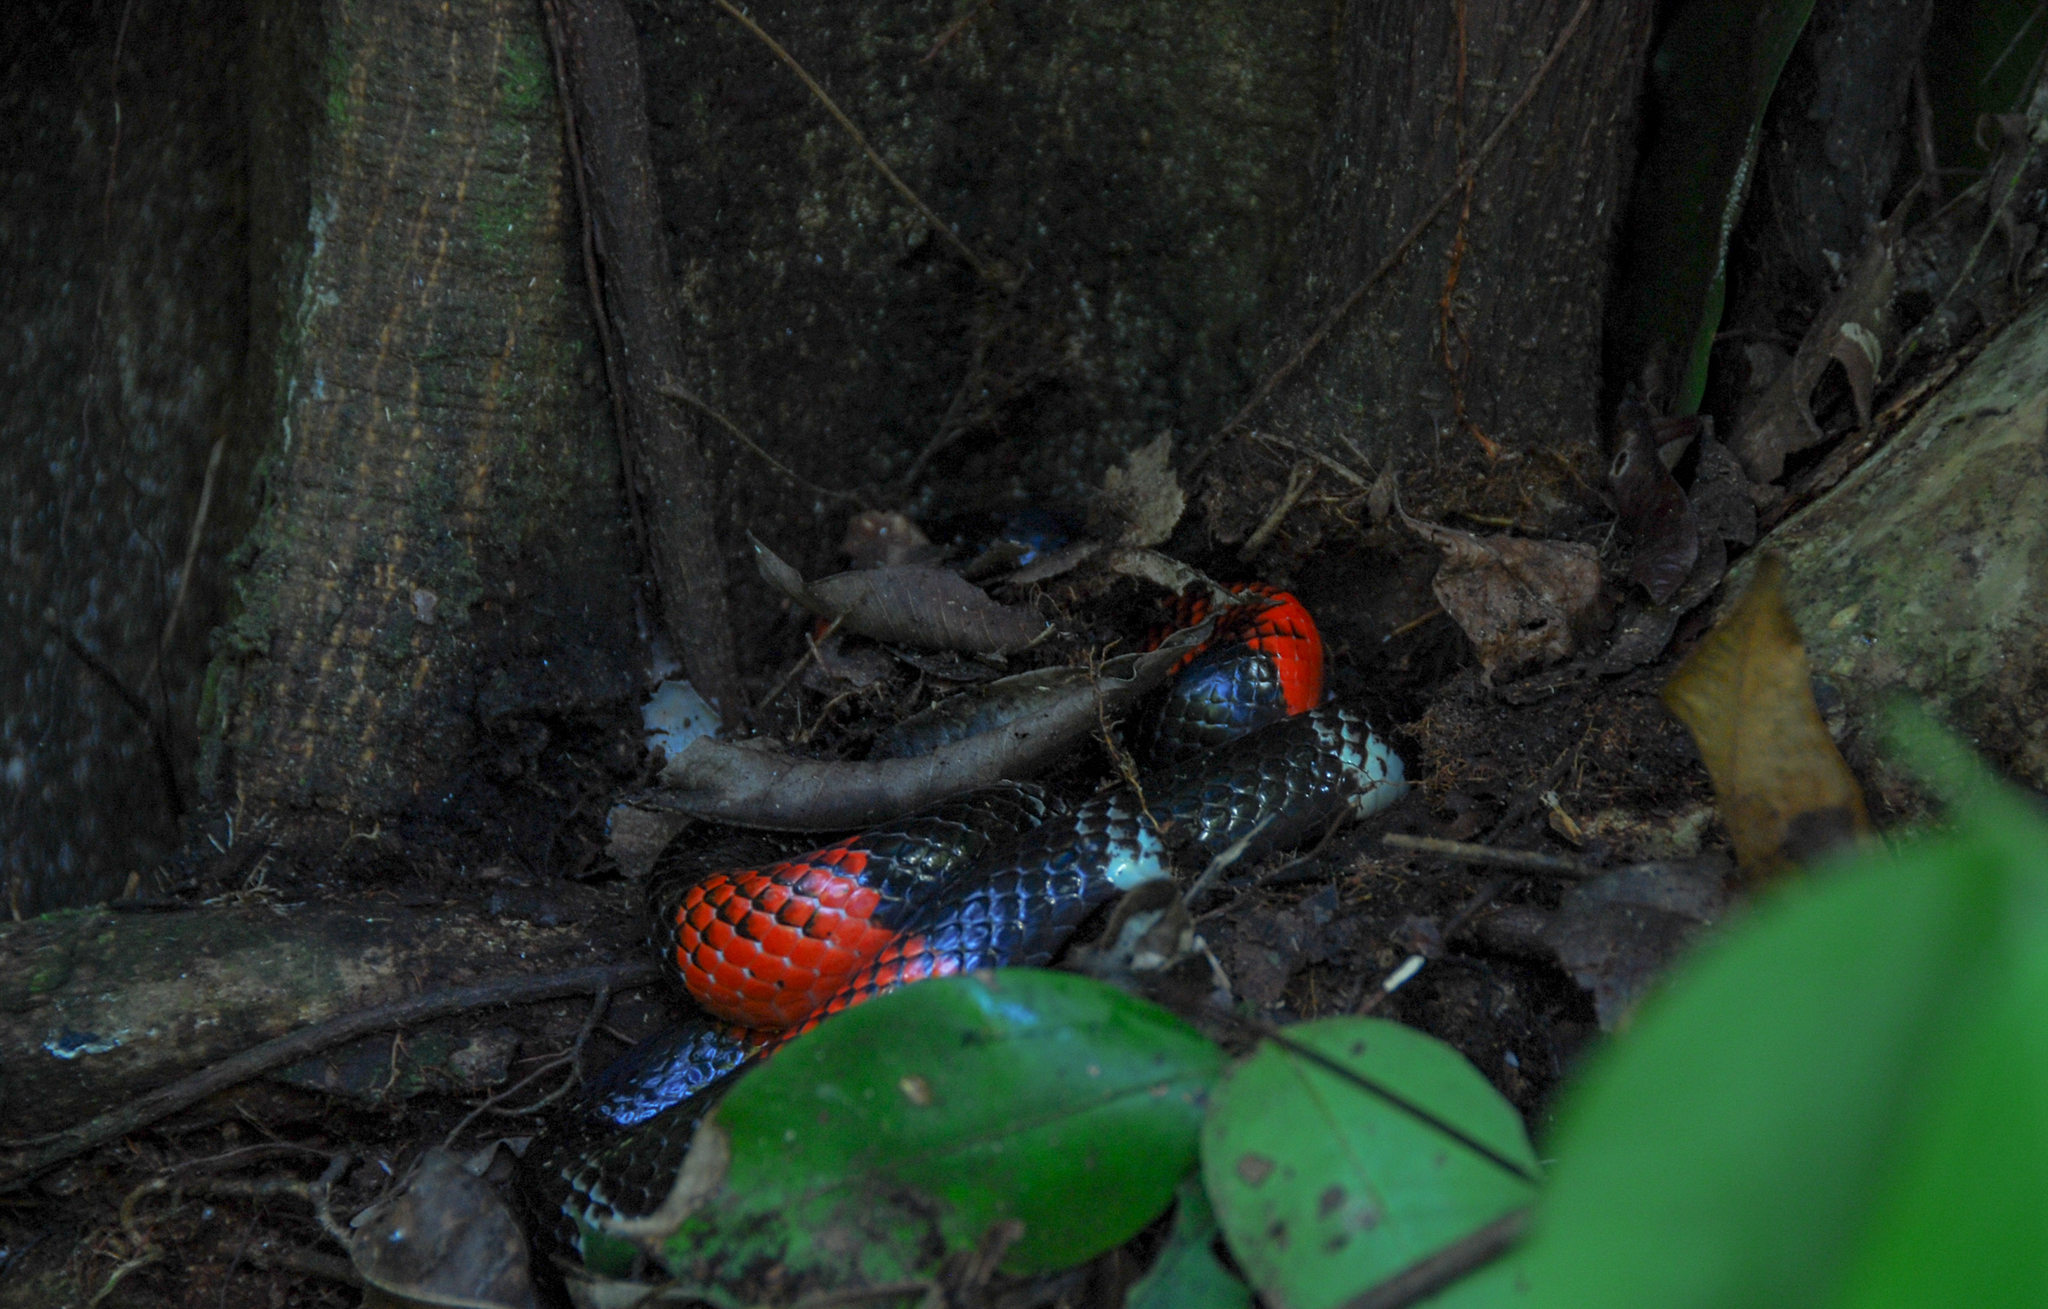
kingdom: Animalia
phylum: Chordata
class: Squamata
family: Elapidae
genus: Micrurus
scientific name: Micrurus lemniscatus
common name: South american coral snake
